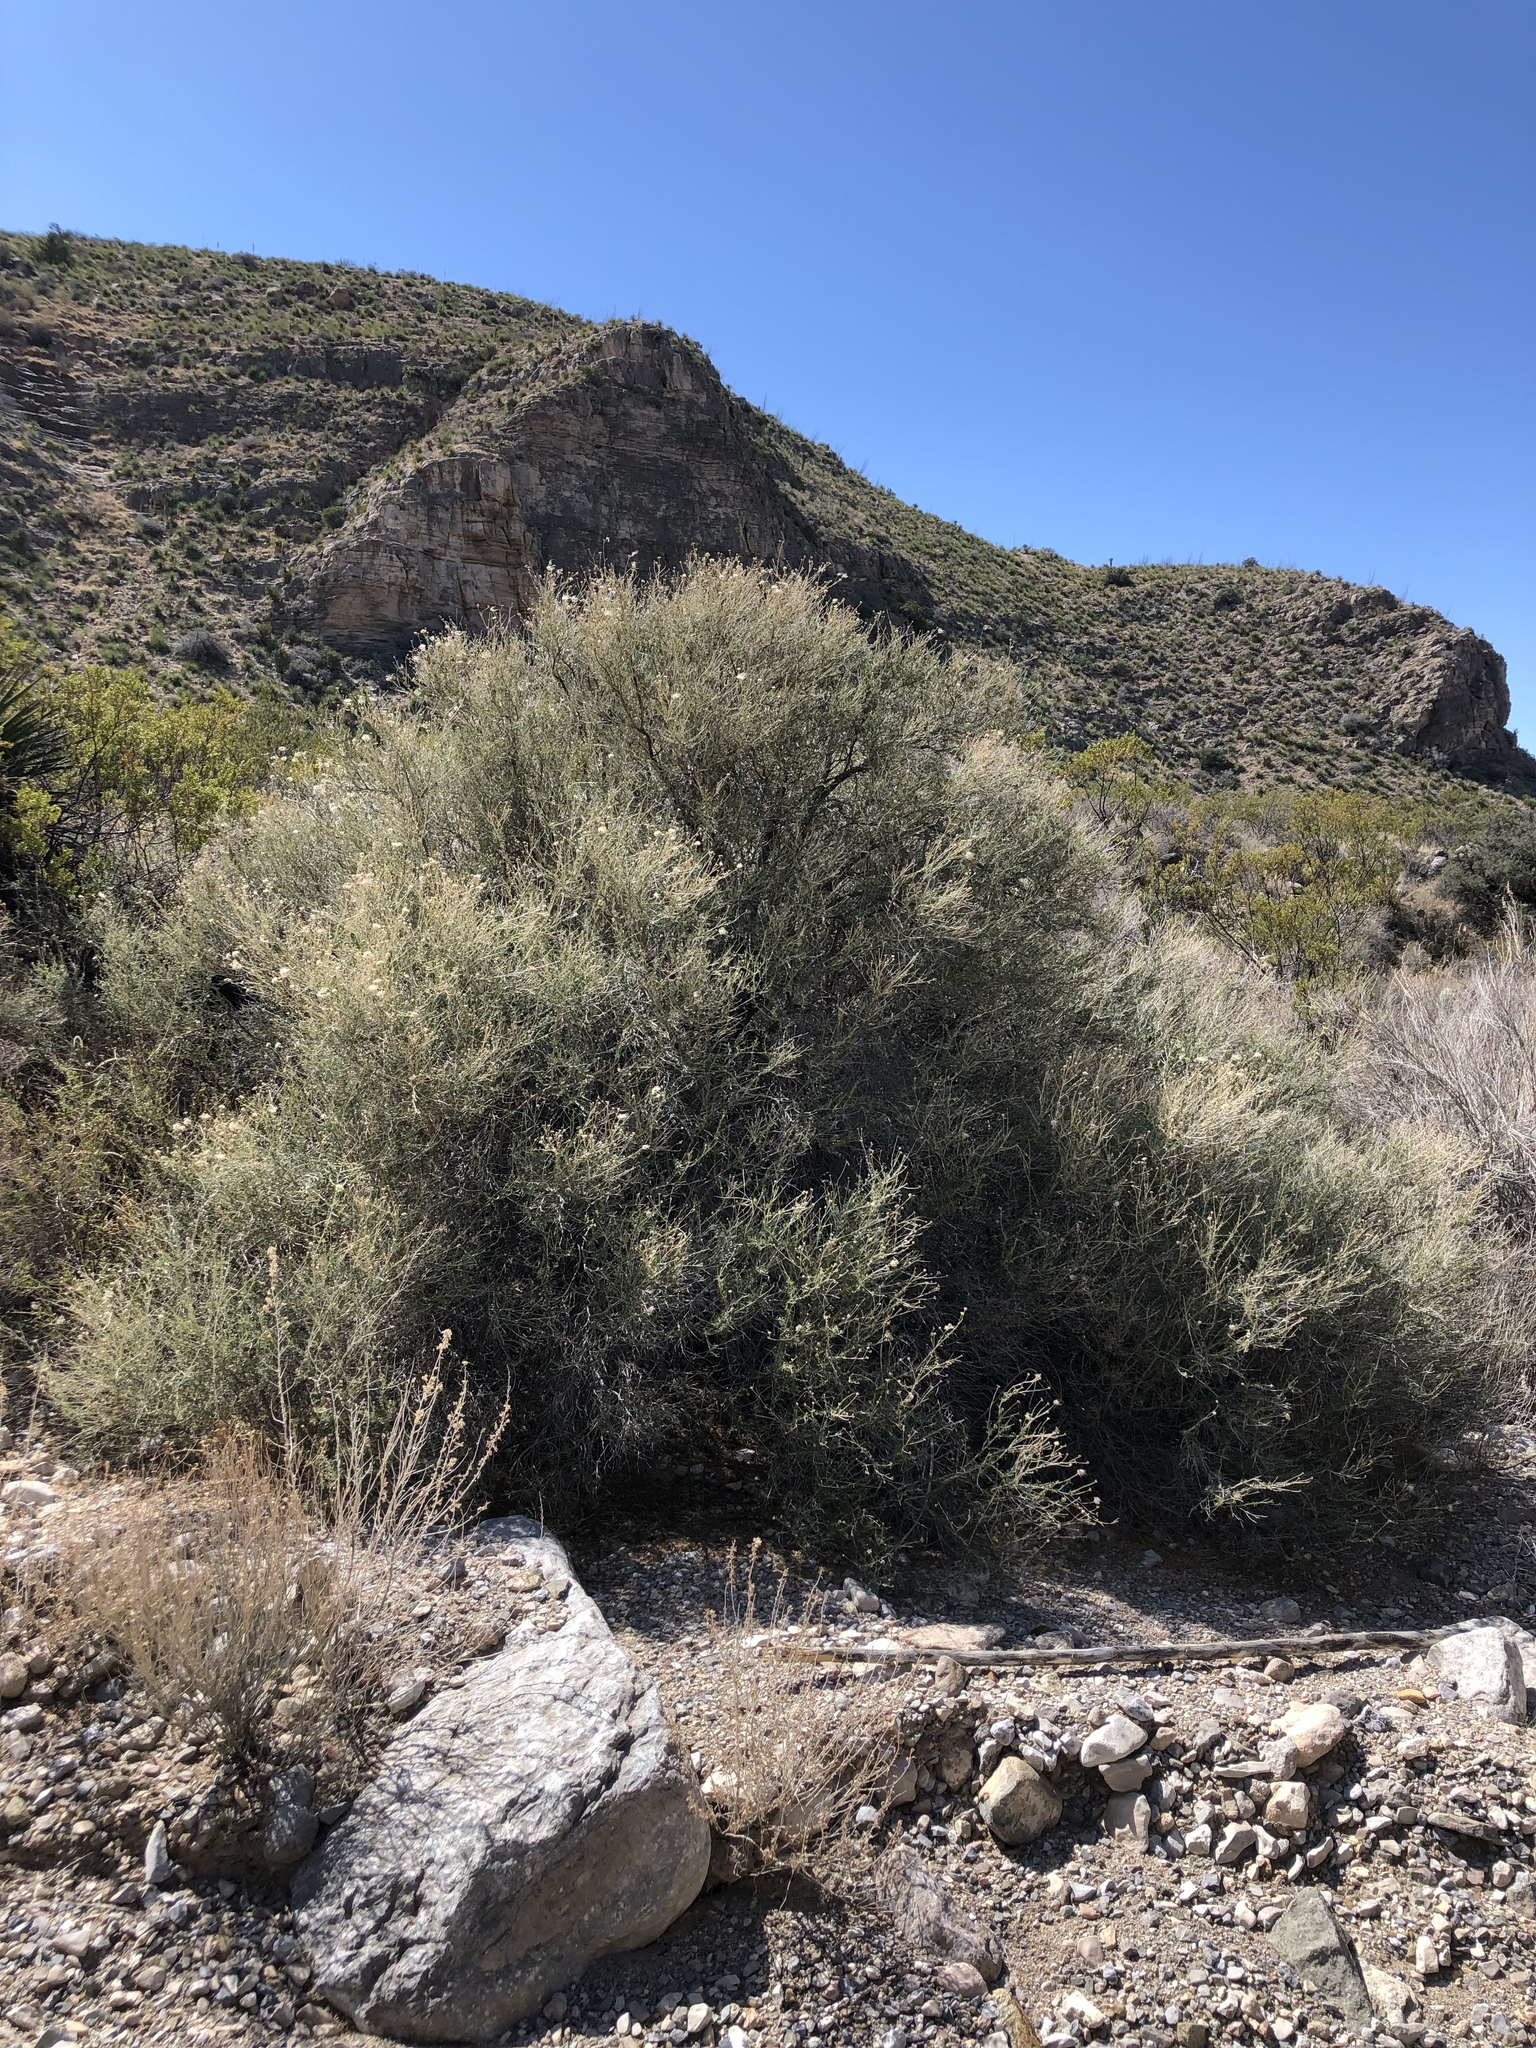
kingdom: Plantae
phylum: Tracheophyta
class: Magnoliopsida
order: Rosales
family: Rosaceae
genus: Fallugia
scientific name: Fallugia paradoxa
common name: Apache-plume
